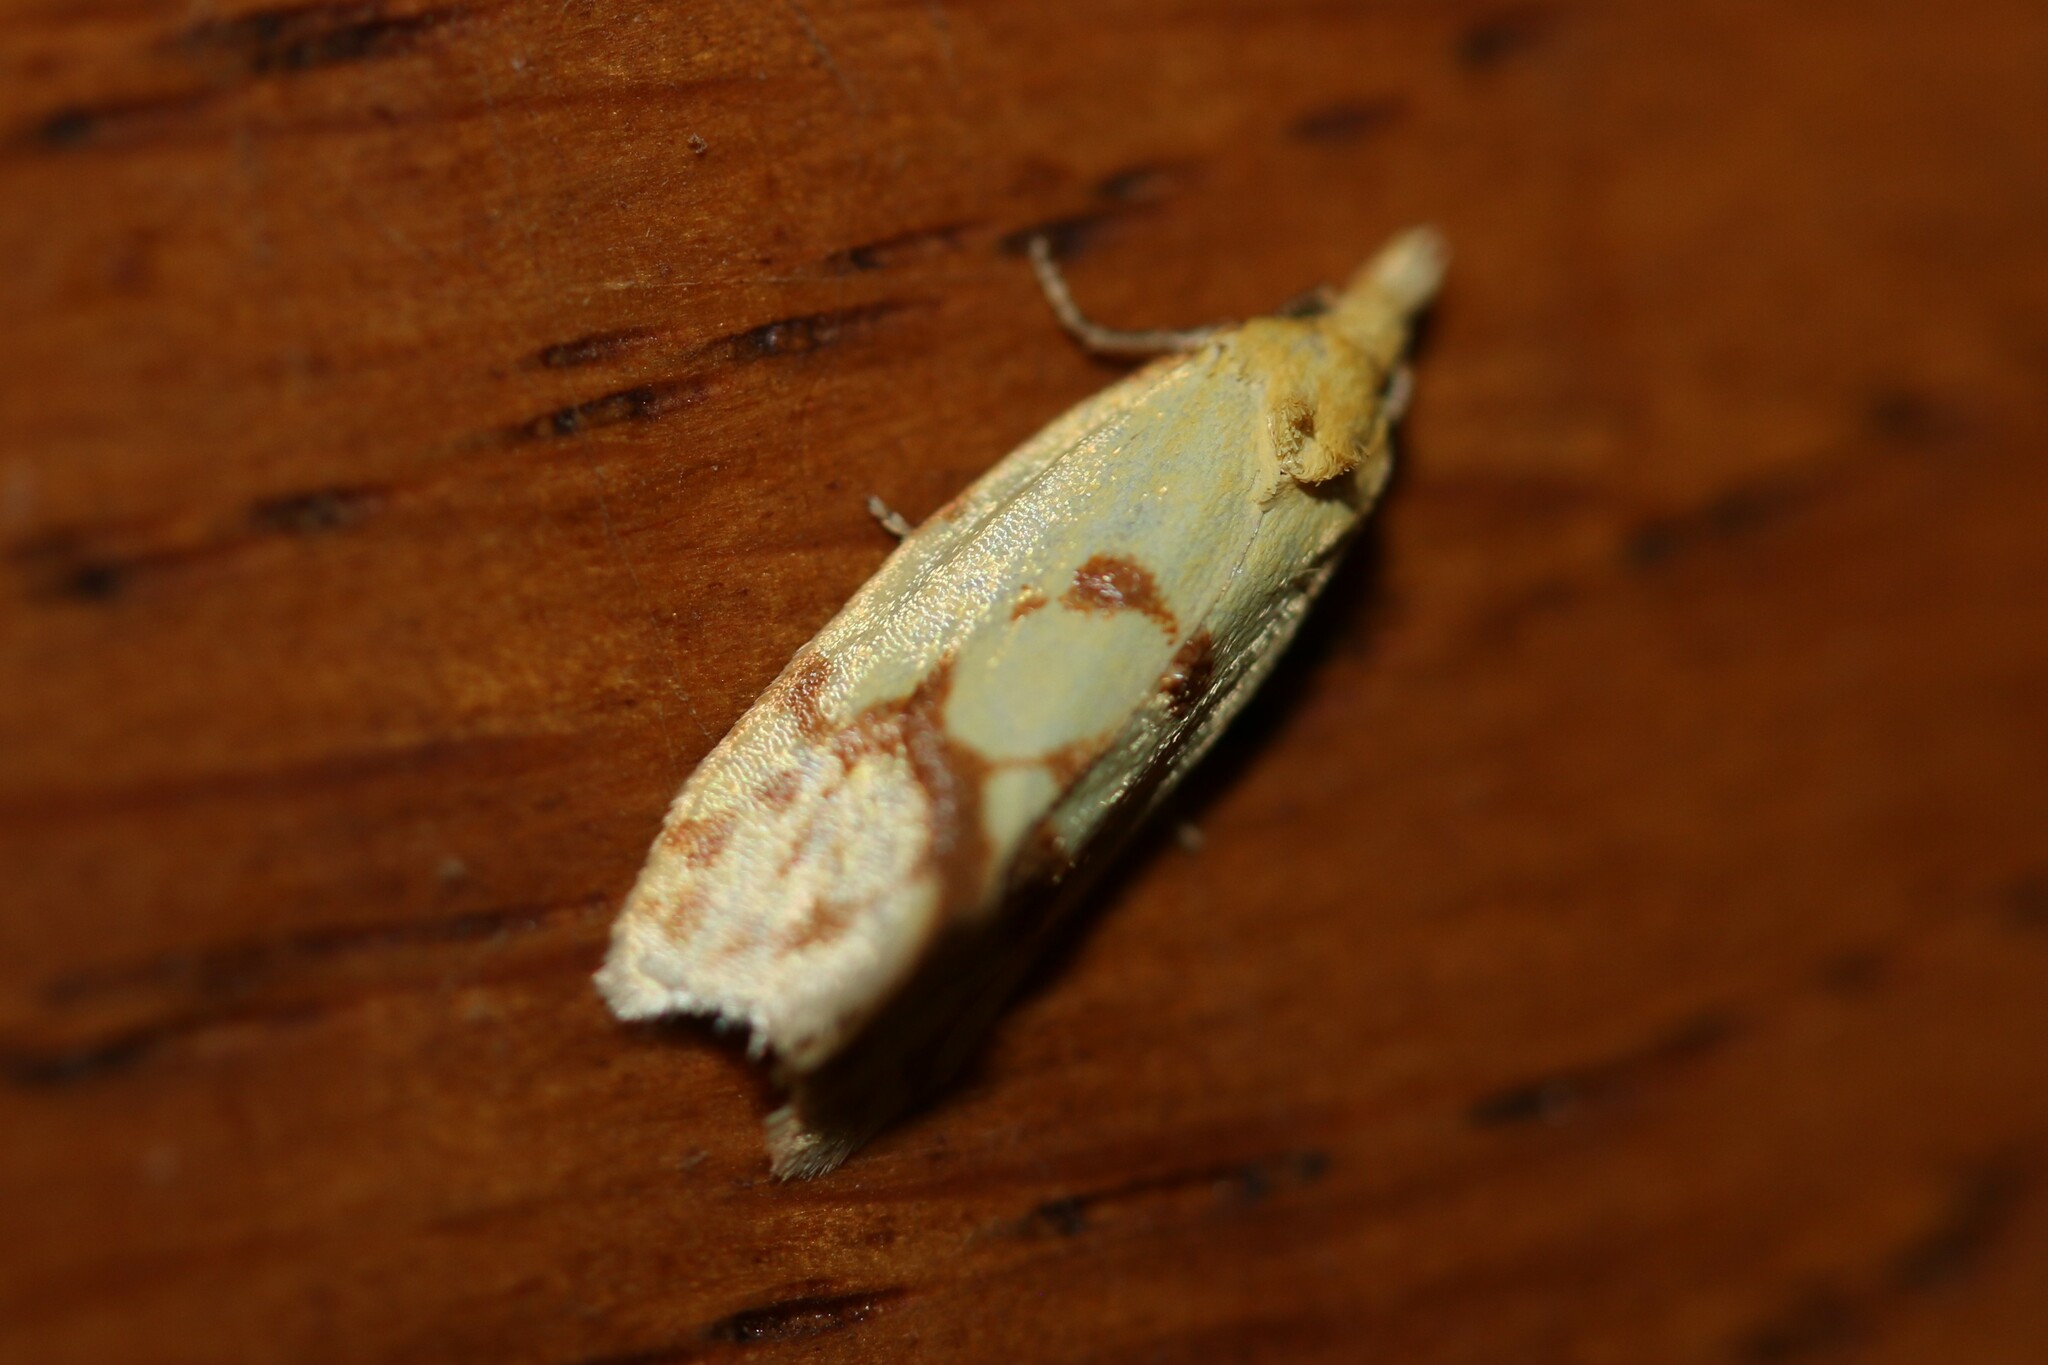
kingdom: Animalia
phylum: Arthropoda
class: Insecta
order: Lepidoptera
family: Tortricidae
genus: Agapeta
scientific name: Agapeta hamana
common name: Common yellow conch
